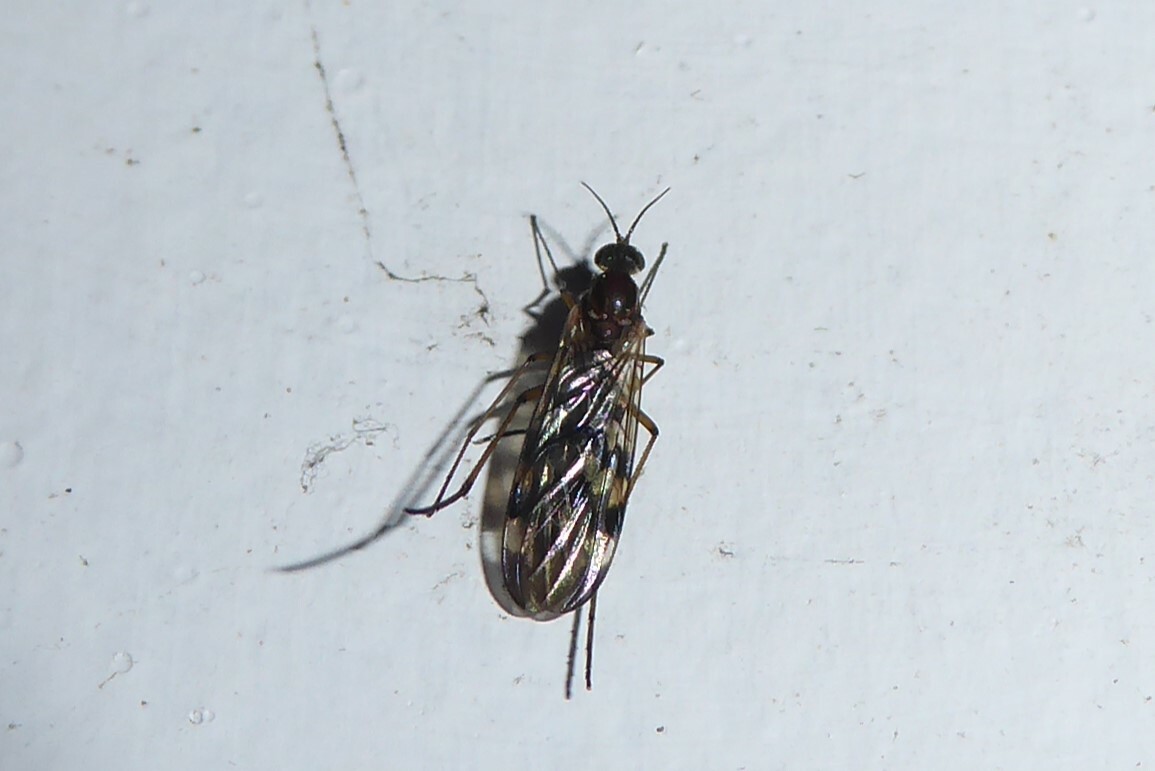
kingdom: Animalia
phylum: Arthropoda
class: Insecta
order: Diptera
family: Anisopodidae
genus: Sylvicola
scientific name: Sylvicola notatus
